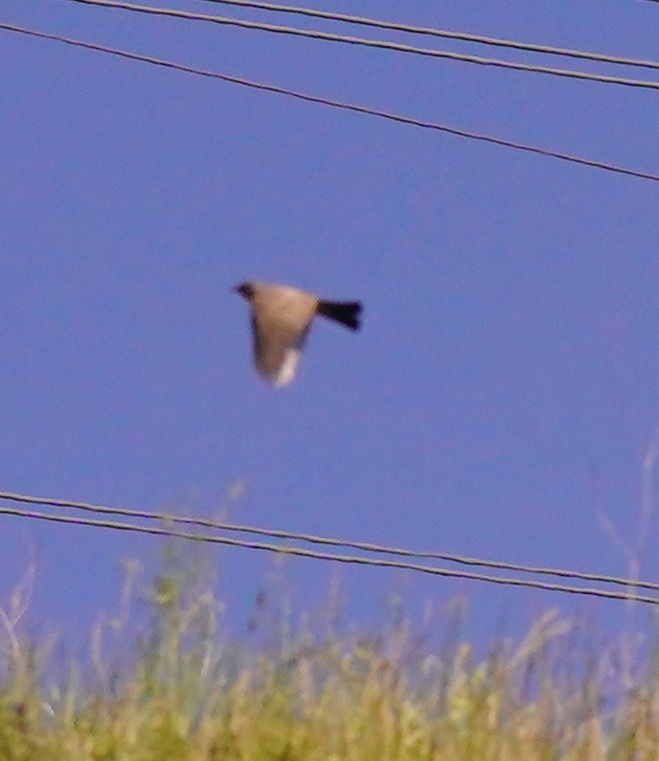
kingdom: Animalia
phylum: Chordata
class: Aves
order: Passeriformes
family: Tyrannidae
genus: Sayornis
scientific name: Sayornis saya
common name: Say's phoebe
